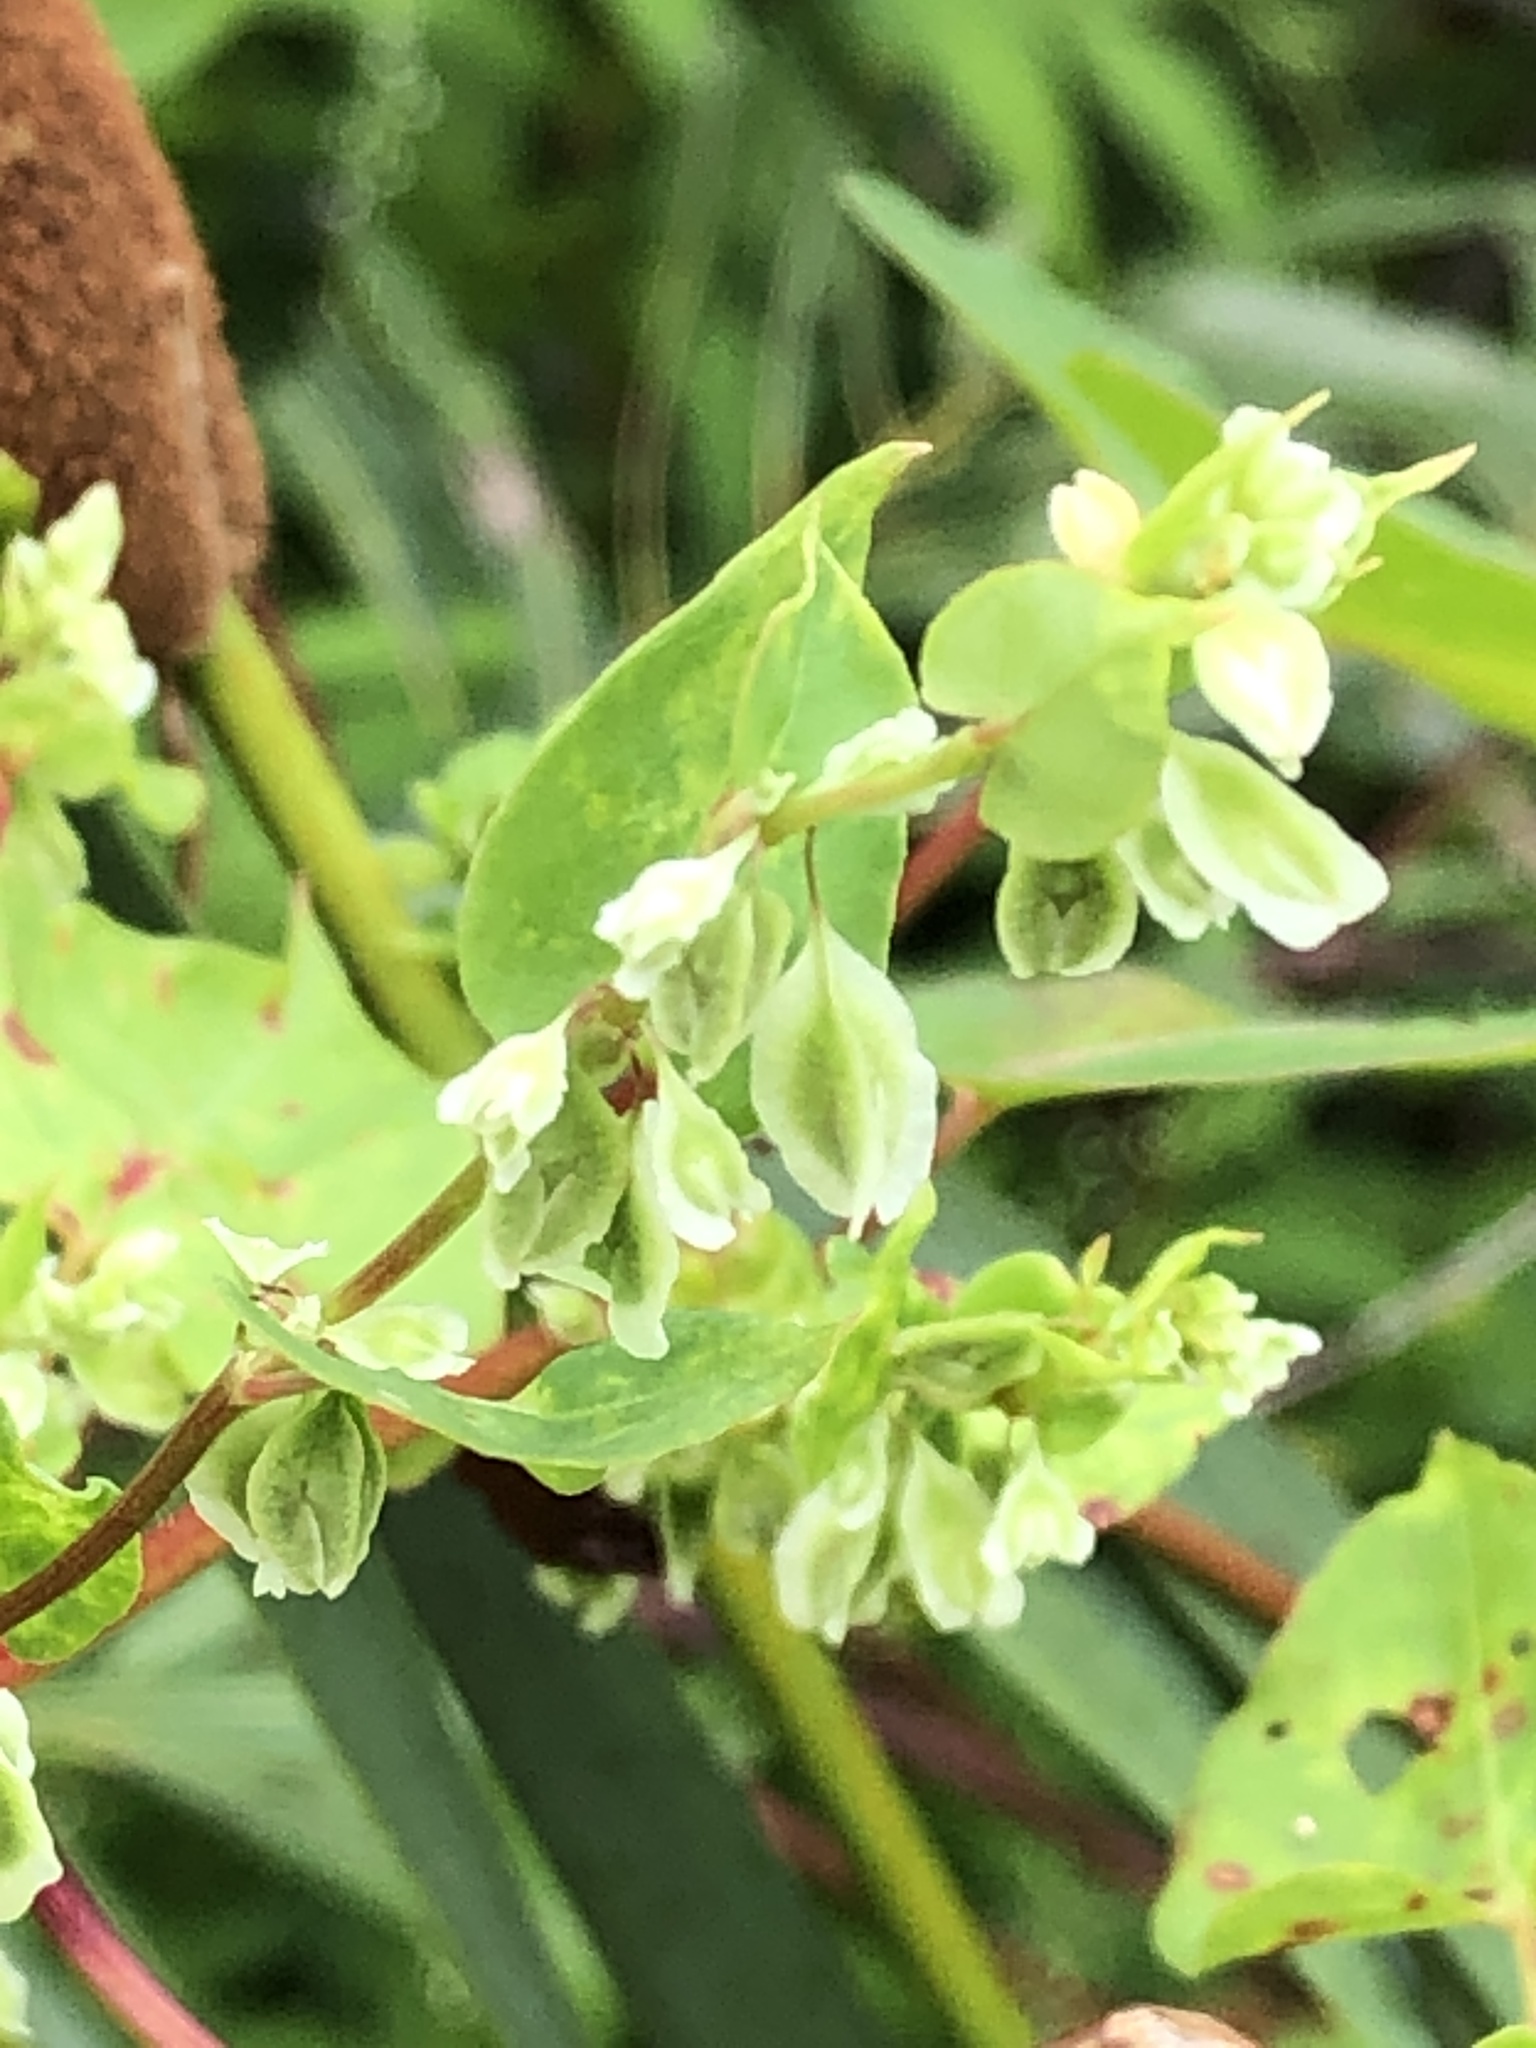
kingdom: Plantae
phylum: Tracheophyta
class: Magnoliopsida
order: Caryophyllales
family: Polygonaceae
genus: Fallopia
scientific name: Fallopia scandens
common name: Climbing false buckwheat
